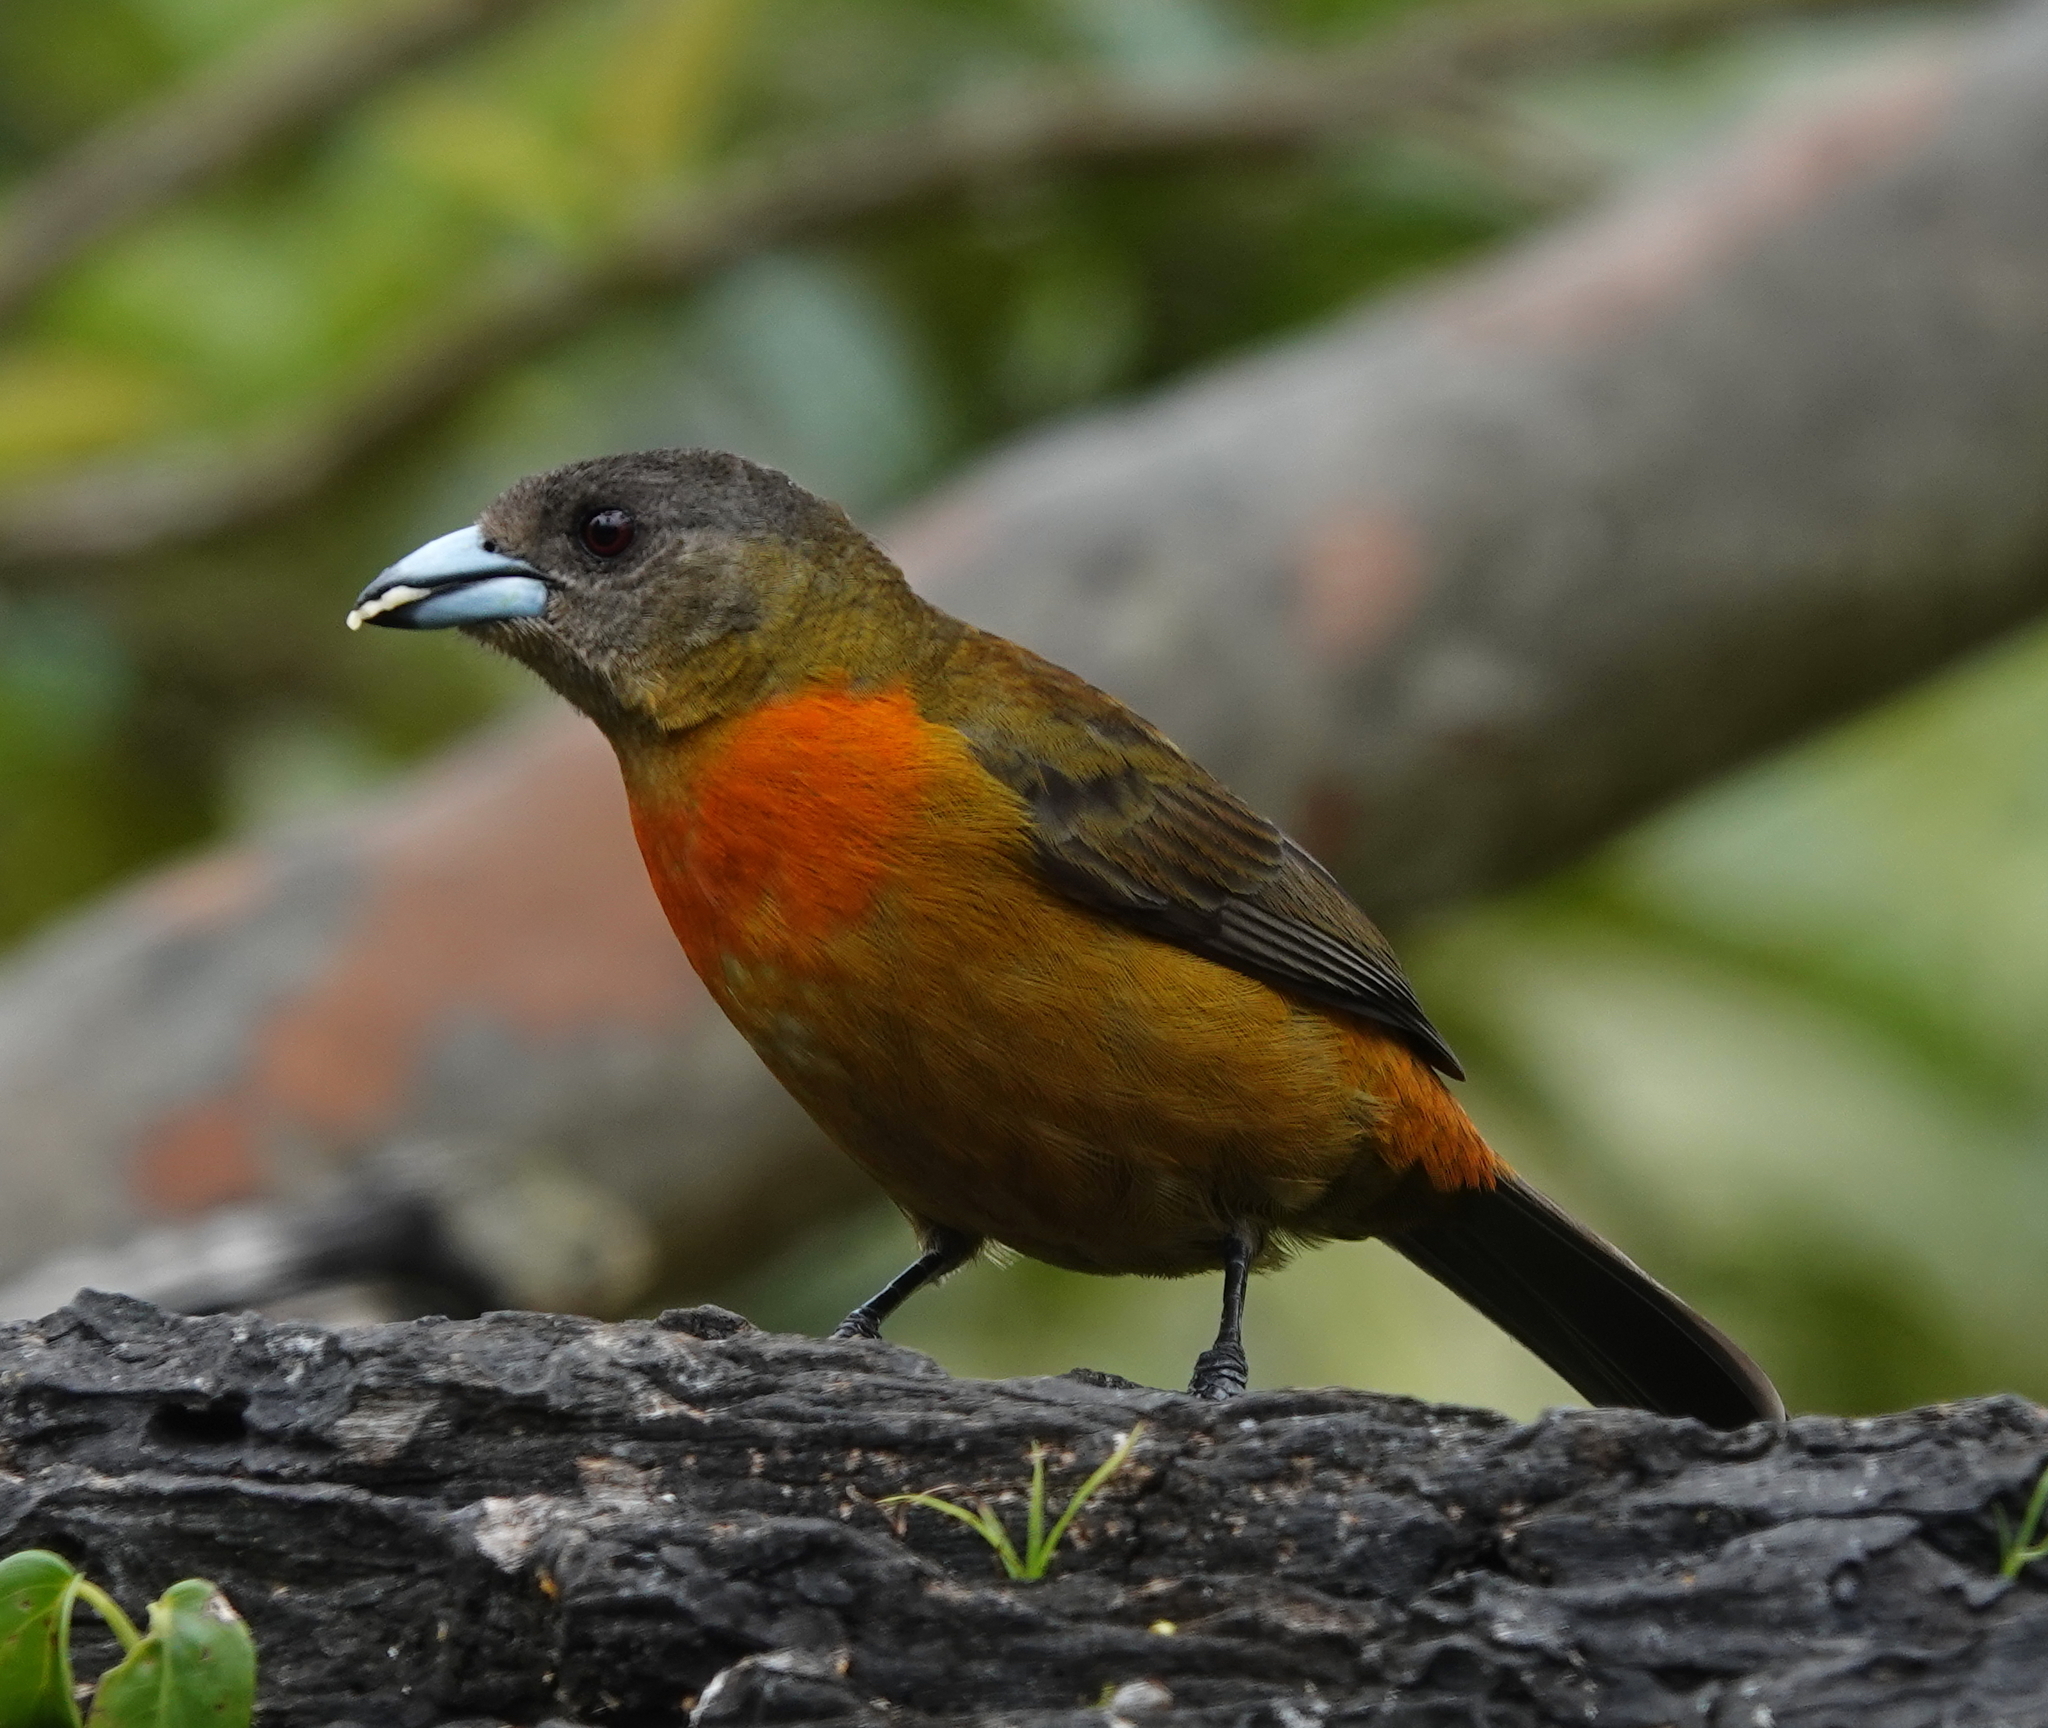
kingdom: Animalia
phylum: Chordata
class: Aves
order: Passeriformes
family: Thraupidae
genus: Ramphocelus
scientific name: Ramphocelus passerinii
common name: Passerini's tanager
